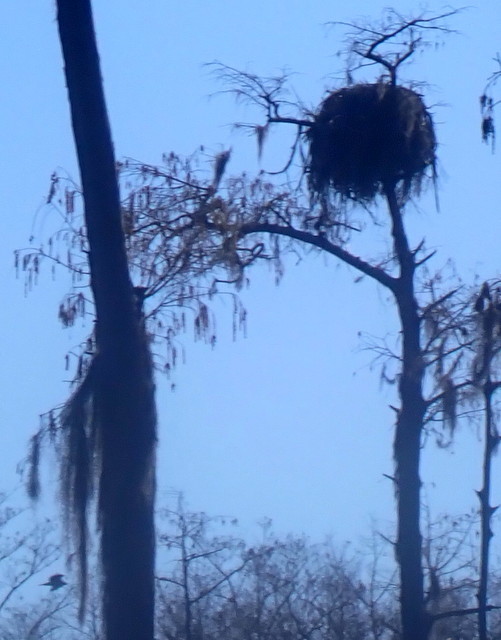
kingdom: Animalia
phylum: Chordata
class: Aves
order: Accipitriformes
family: Pandionidae
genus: Pandion
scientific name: Pandion haliaetus
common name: Osprey
